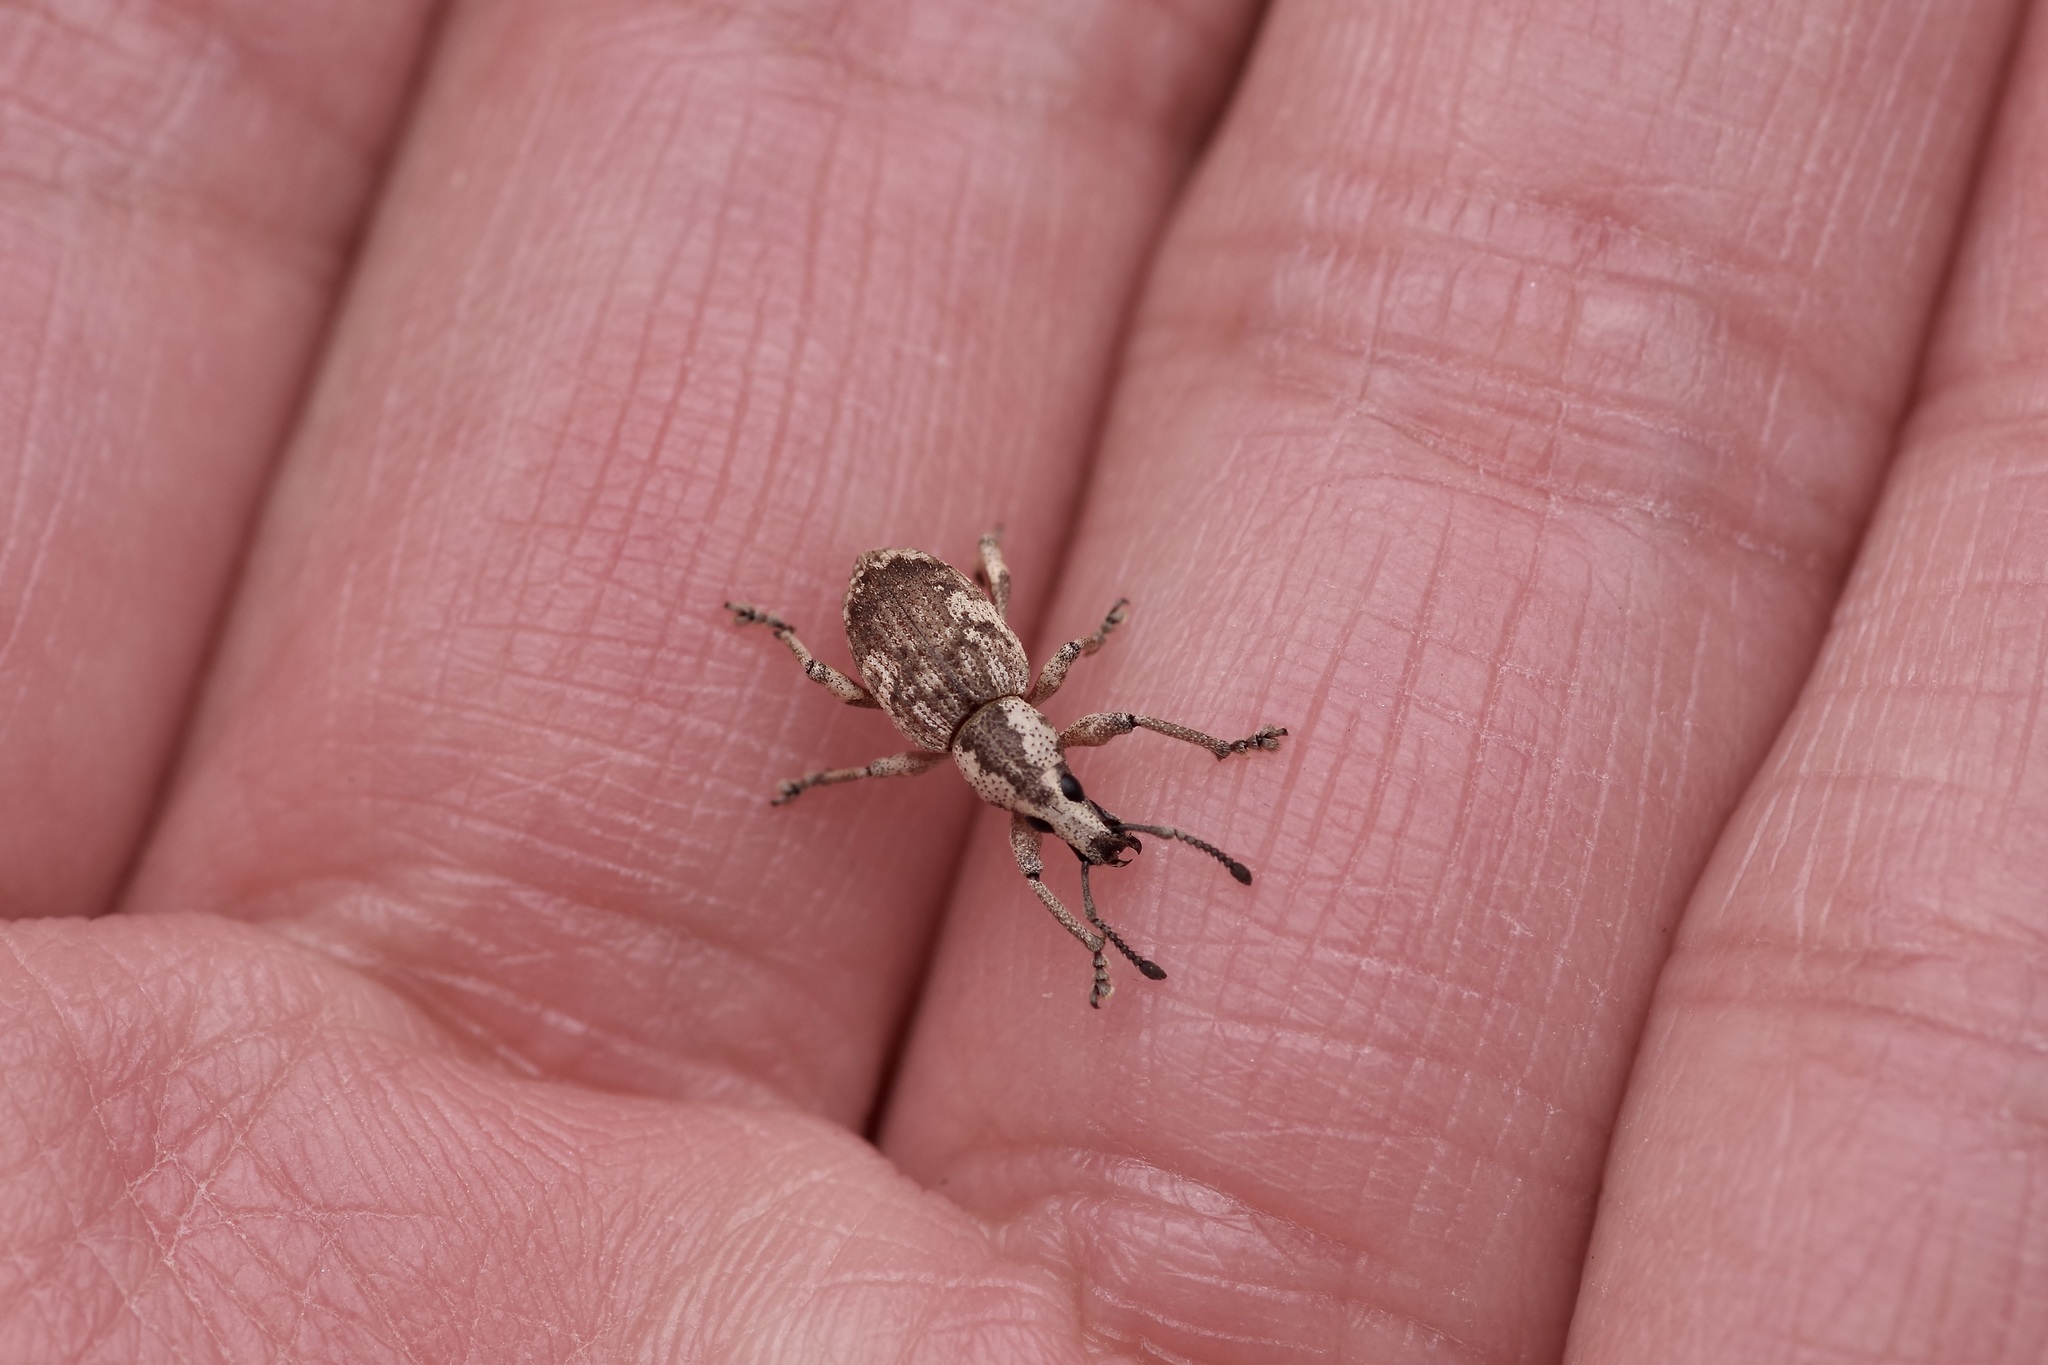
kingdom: Animalia
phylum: Arthropoda
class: Insecta
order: Coleoptera
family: Curculionidae
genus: Omileus
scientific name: Omileus epicaeroides
